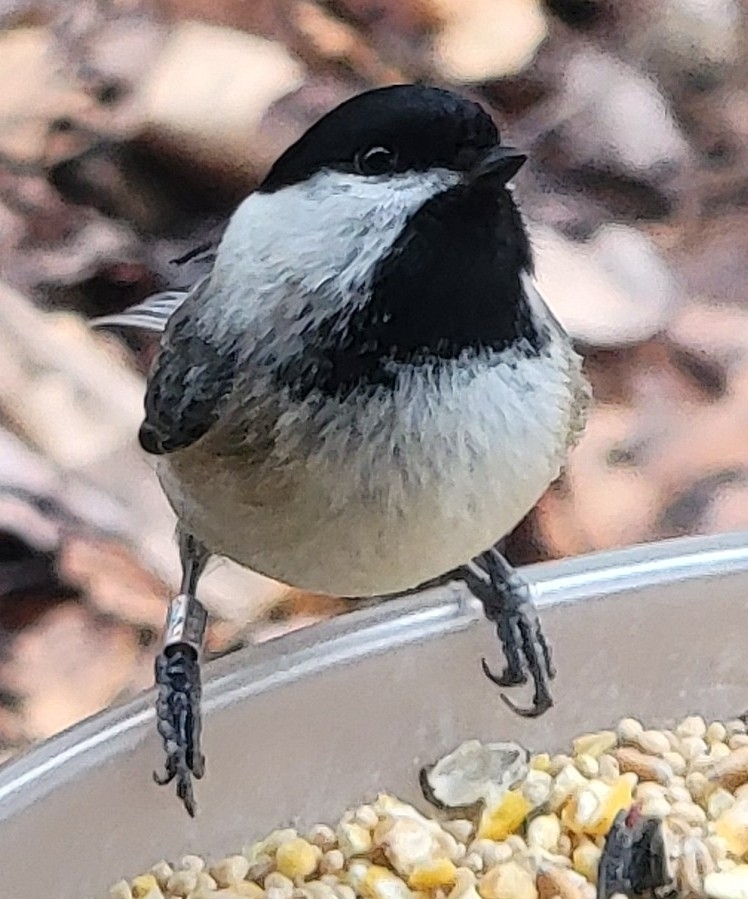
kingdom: Animalia
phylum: Chordata
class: Aves
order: Passeriformes
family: Paridae
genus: Poecile
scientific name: Poecile atricapillus
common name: Black-capped chickadee
